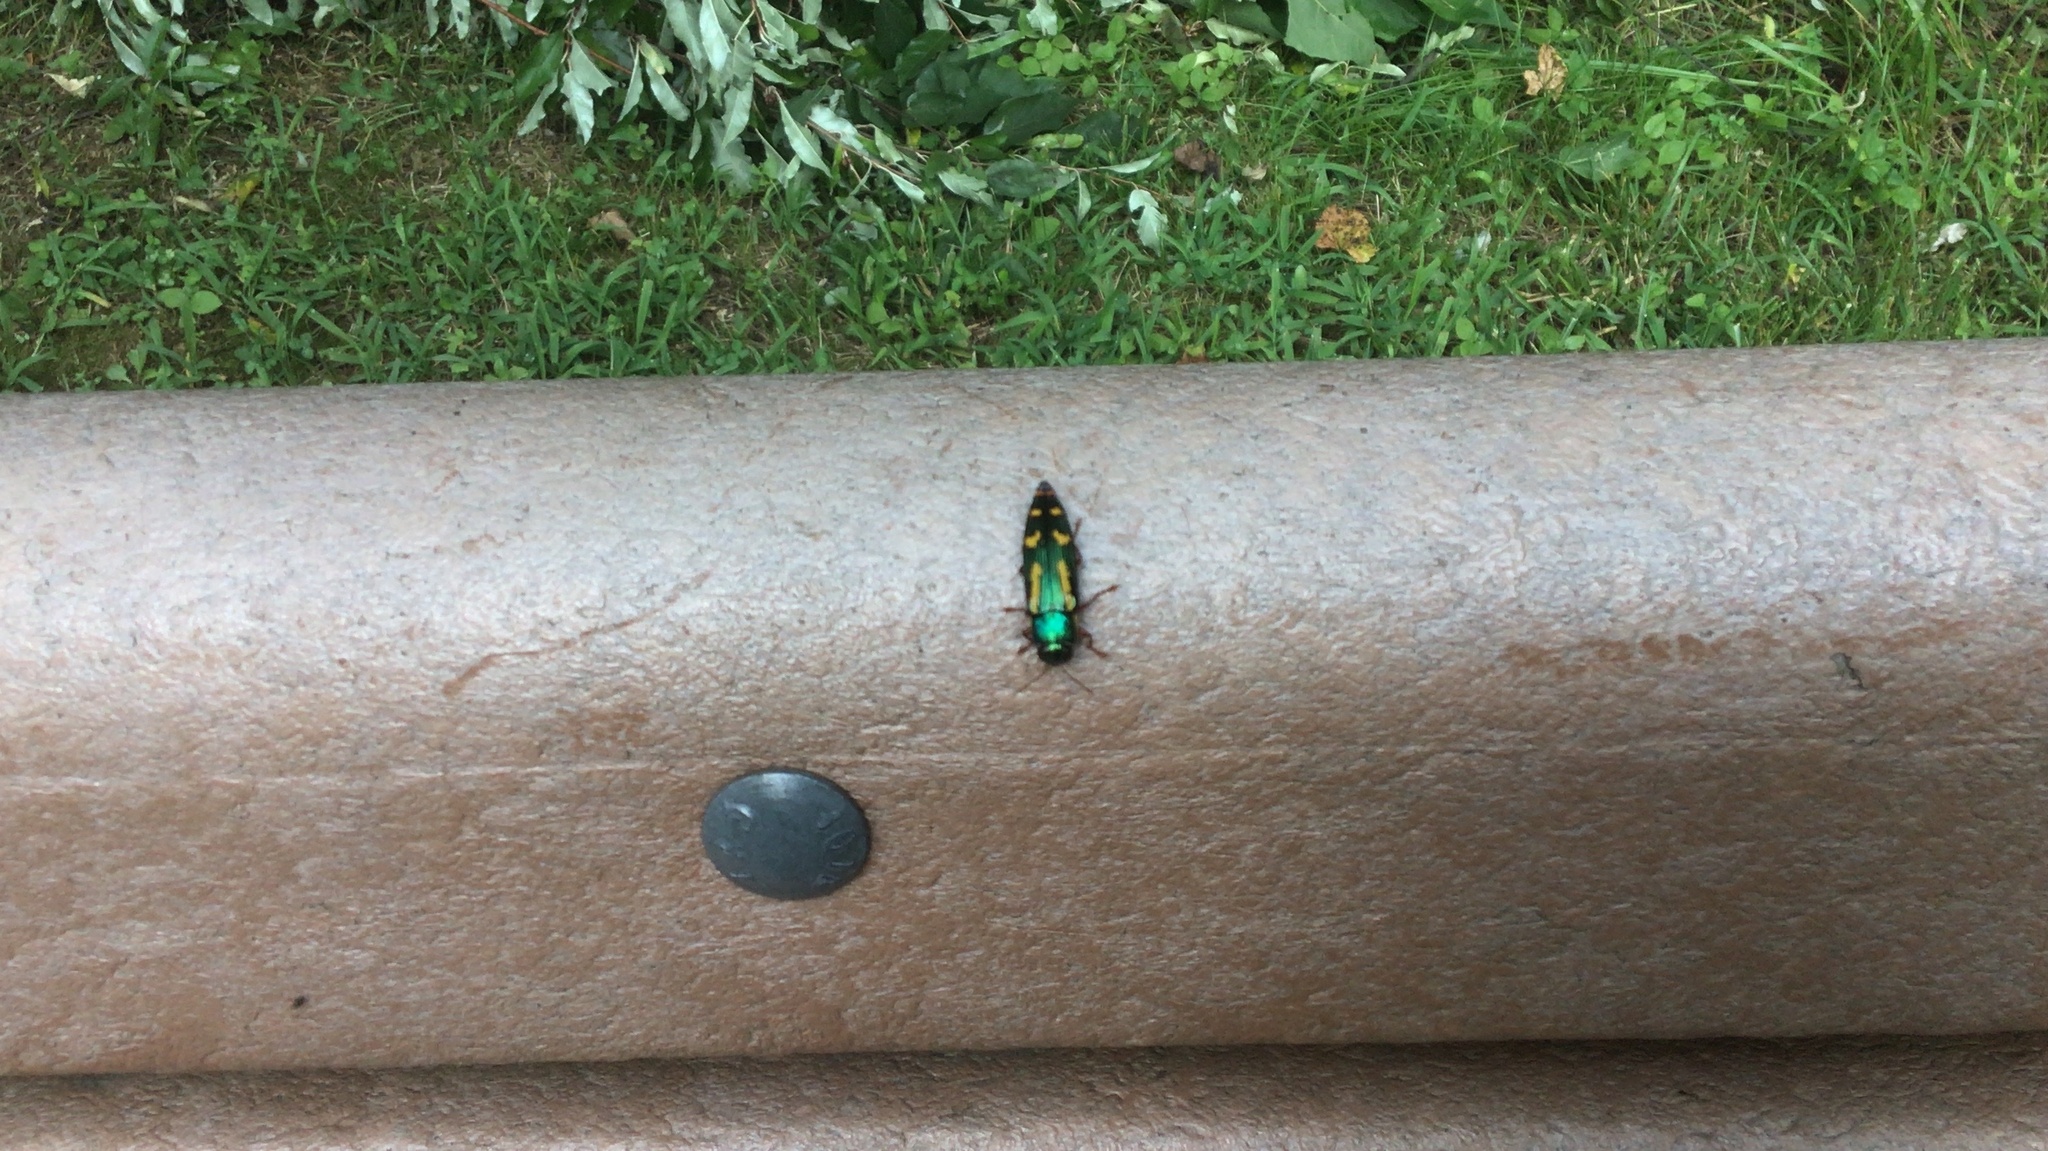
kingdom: Animalia
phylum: Arthropoda
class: Insecta
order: Coleoptera
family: Buprestidae
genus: Buprestis
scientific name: Buprestis rufipes
